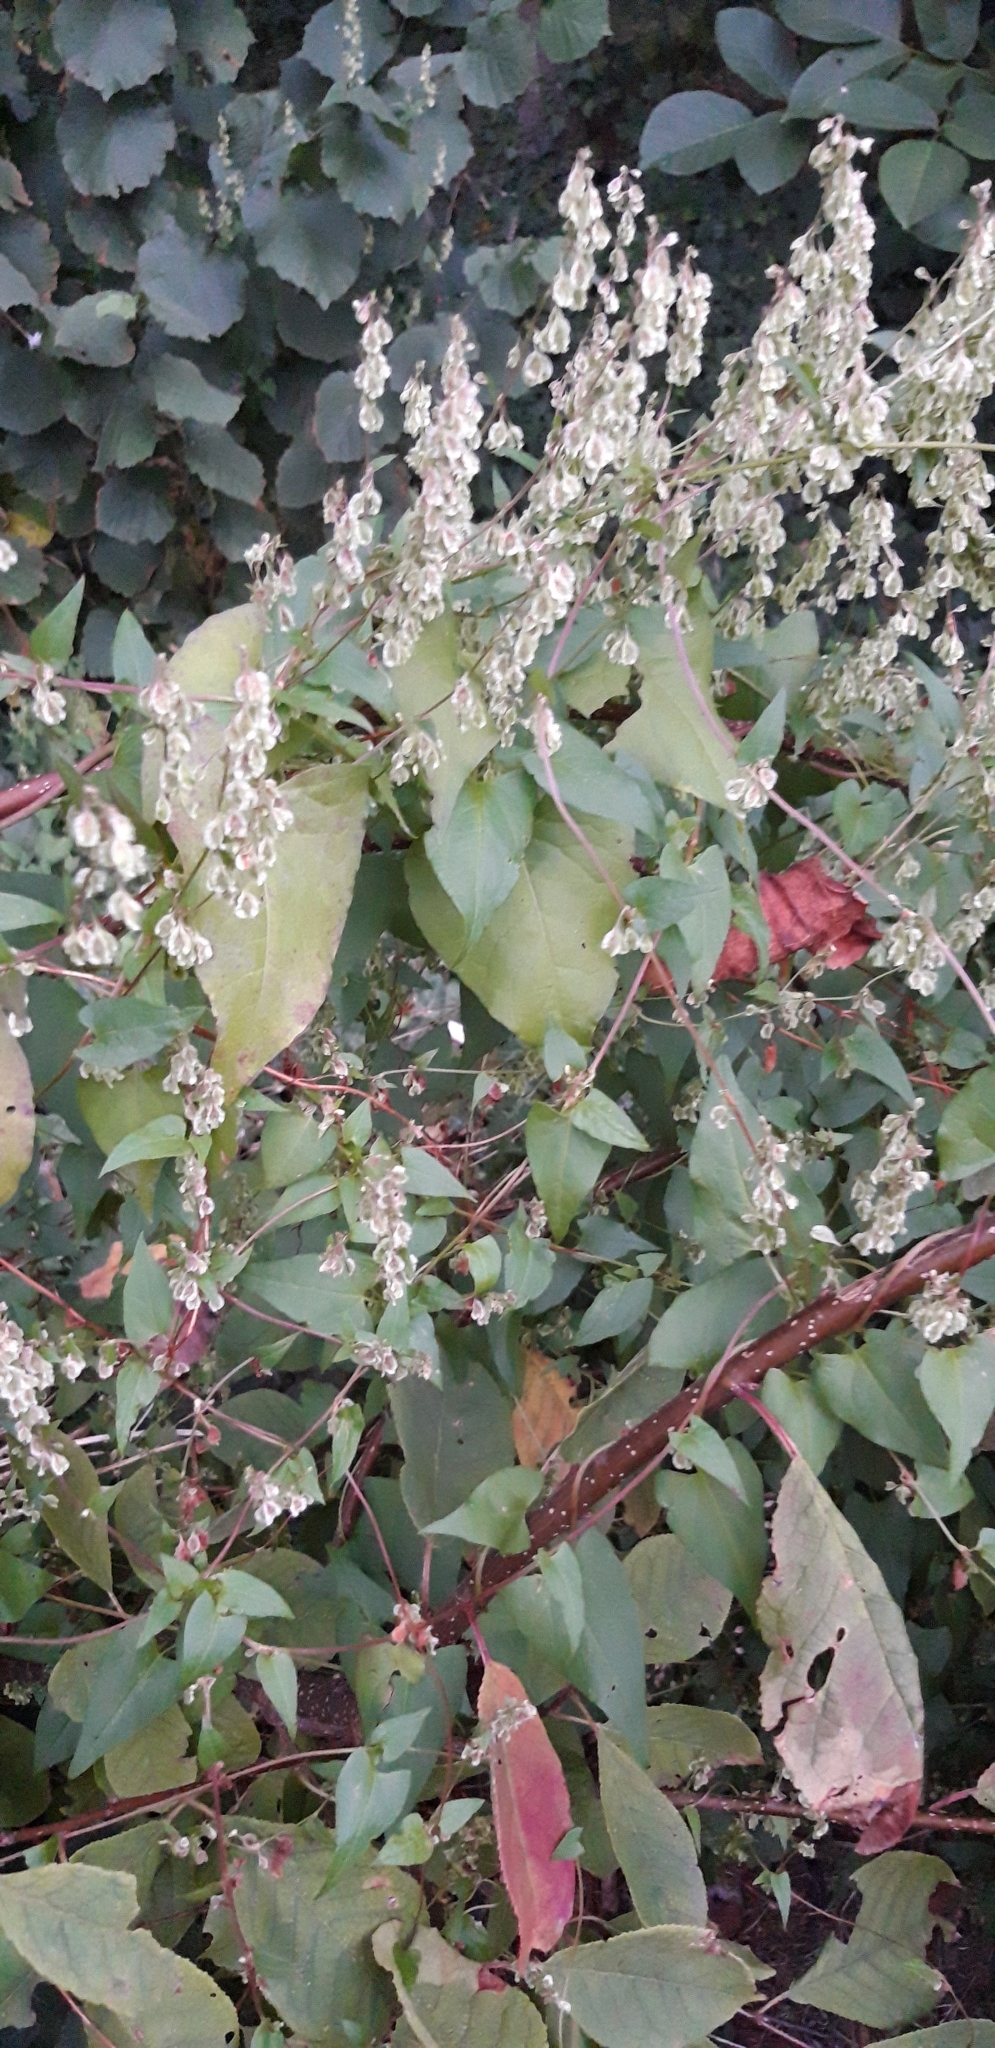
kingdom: Plantae
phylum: Tracheophyta
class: Magnoliopsida
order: Caryophyllales
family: Polygonaceae
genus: Fallopia
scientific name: Fallopia dumetorum
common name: Copse-bindweed
